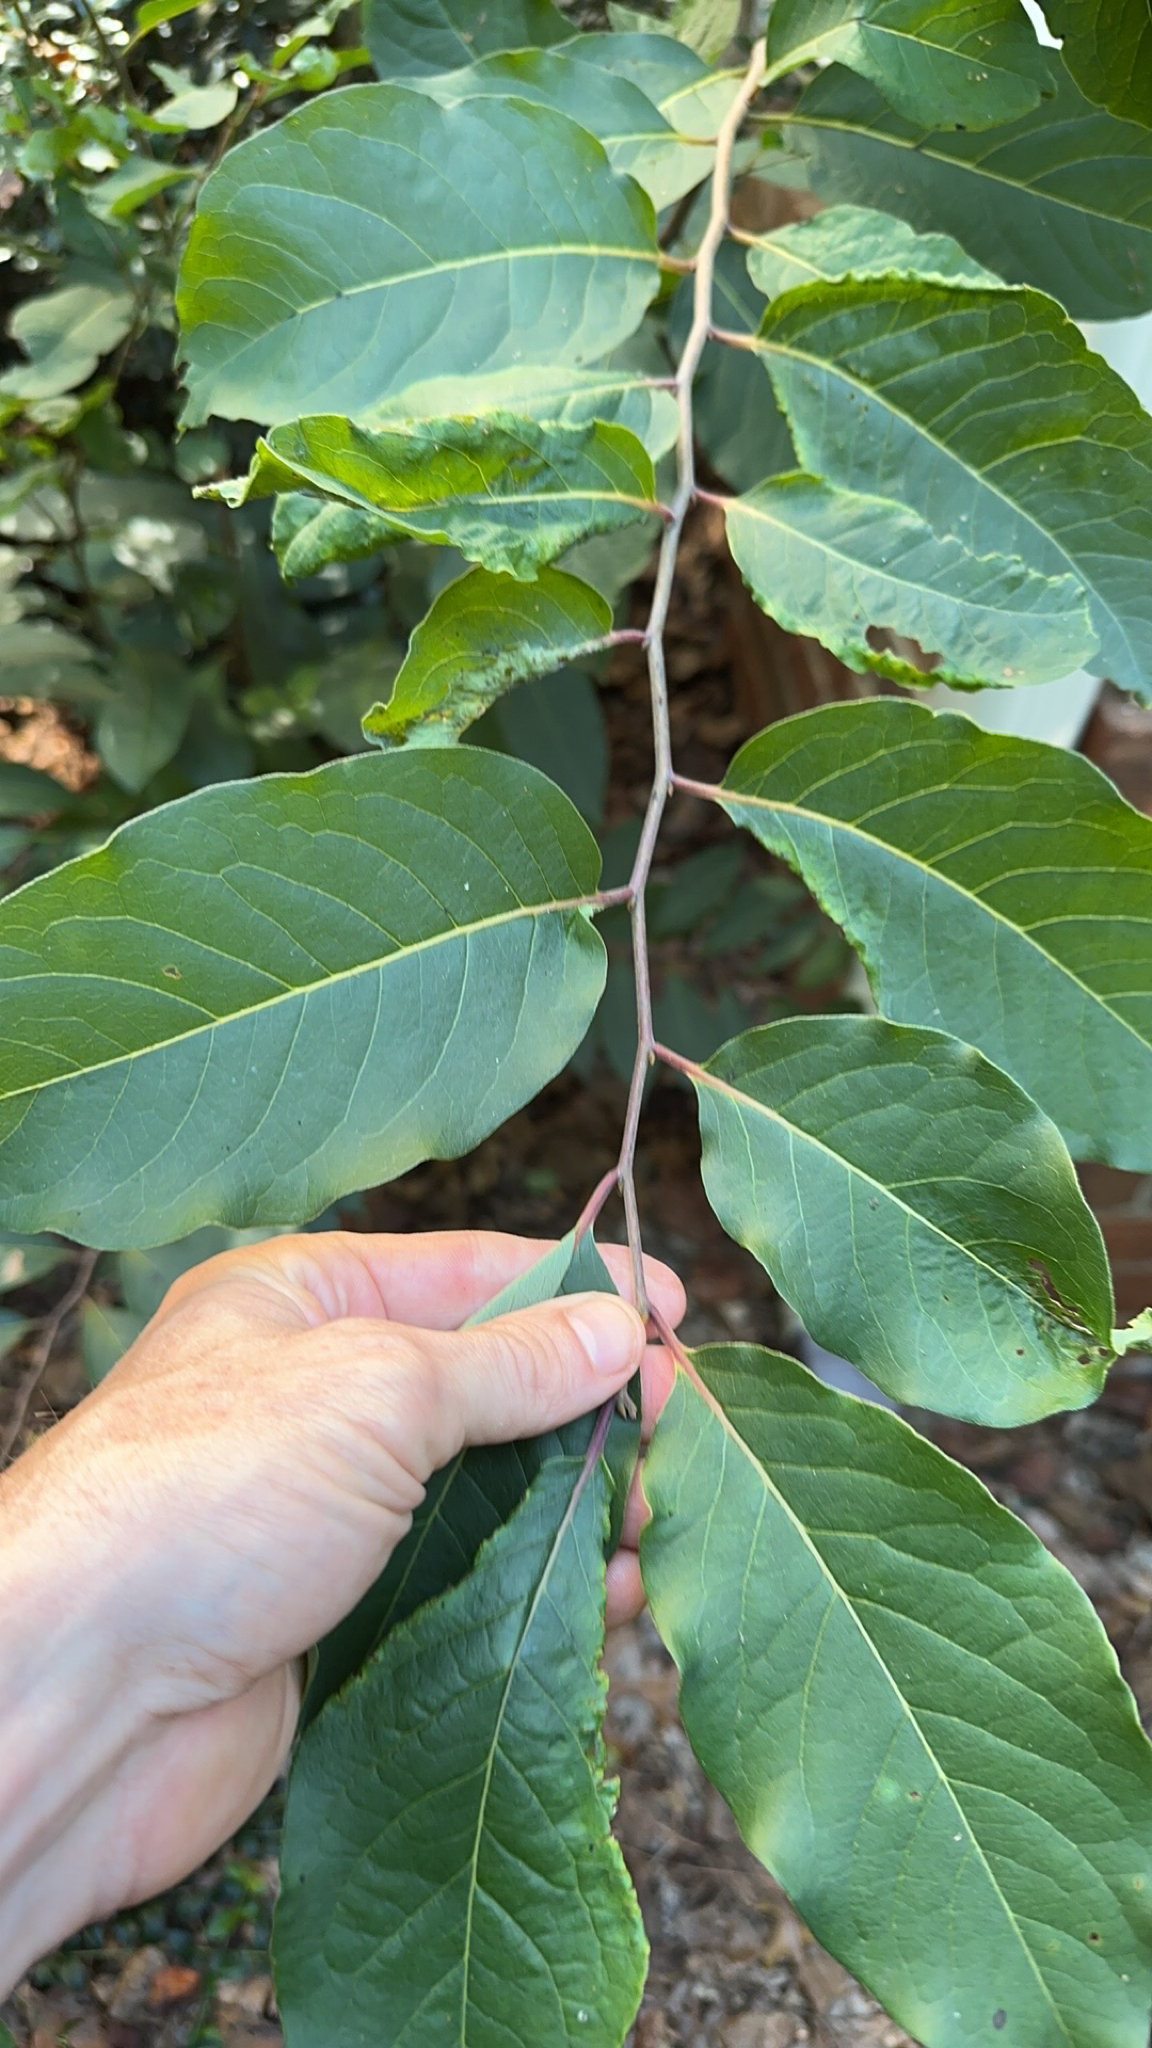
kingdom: Plantae
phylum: Tracheophyta
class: Magnoliopsida
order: Ericales
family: Ebenaceae
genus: Diospyros
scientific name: Diospyros virginiana
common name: Persimmon
